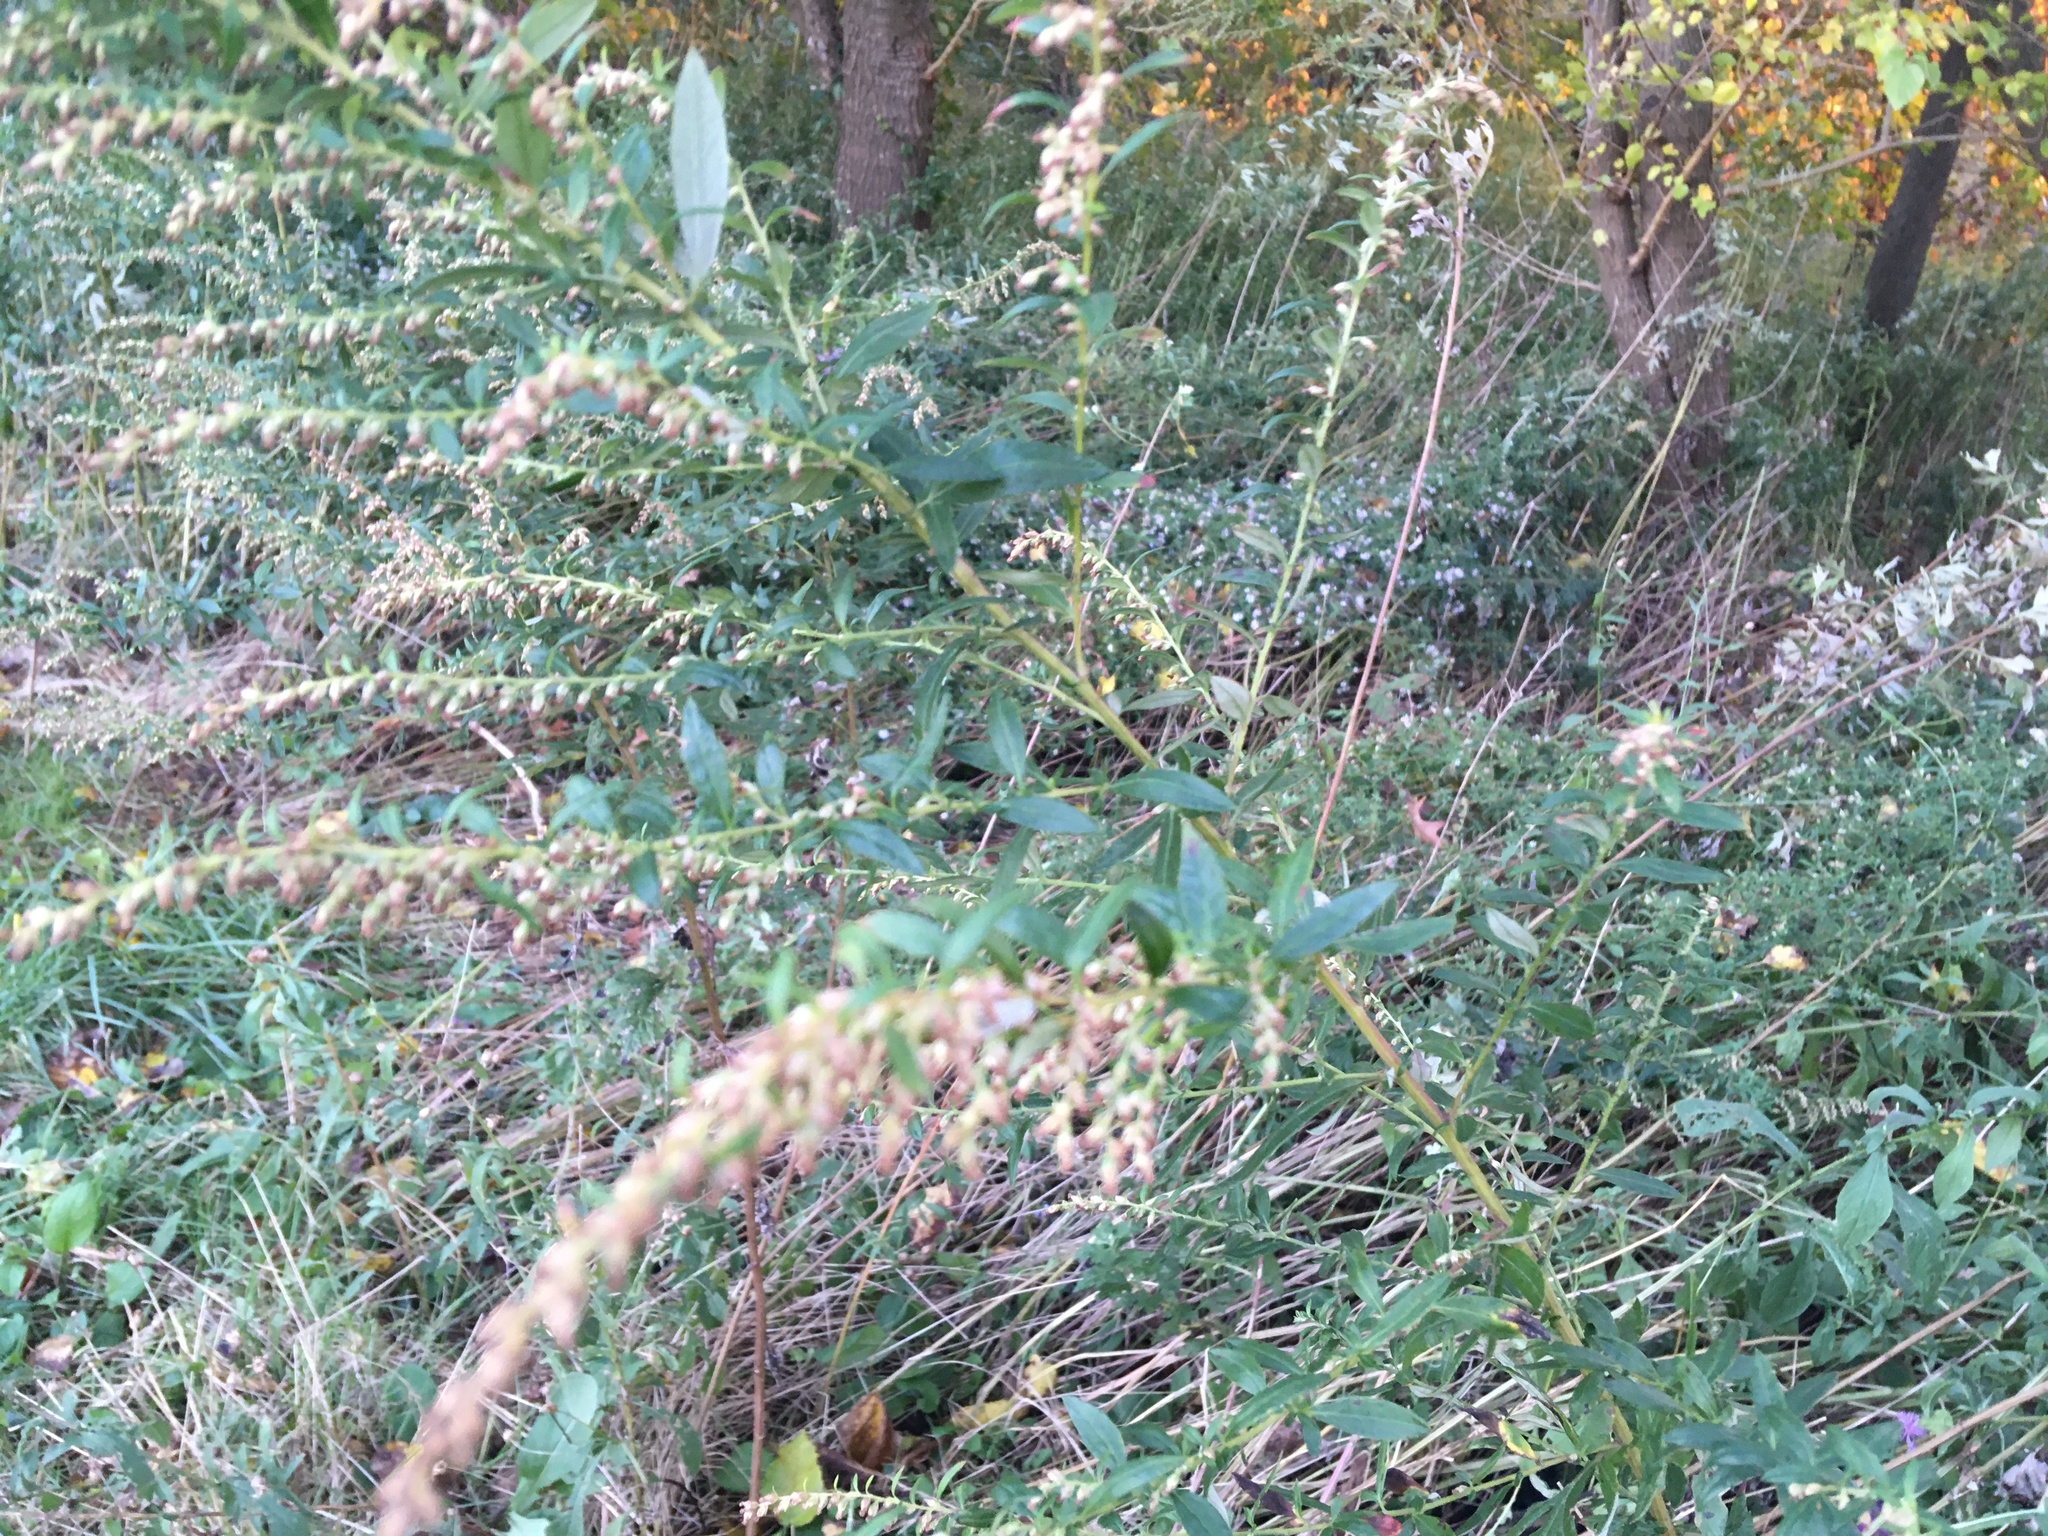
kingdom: Plantae
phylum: Tracheophyta
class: Magnoliopsida
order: Asterales
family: Asteraceae
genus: Artemisia
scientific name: Artemisia vulgaris
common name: Mugwort
